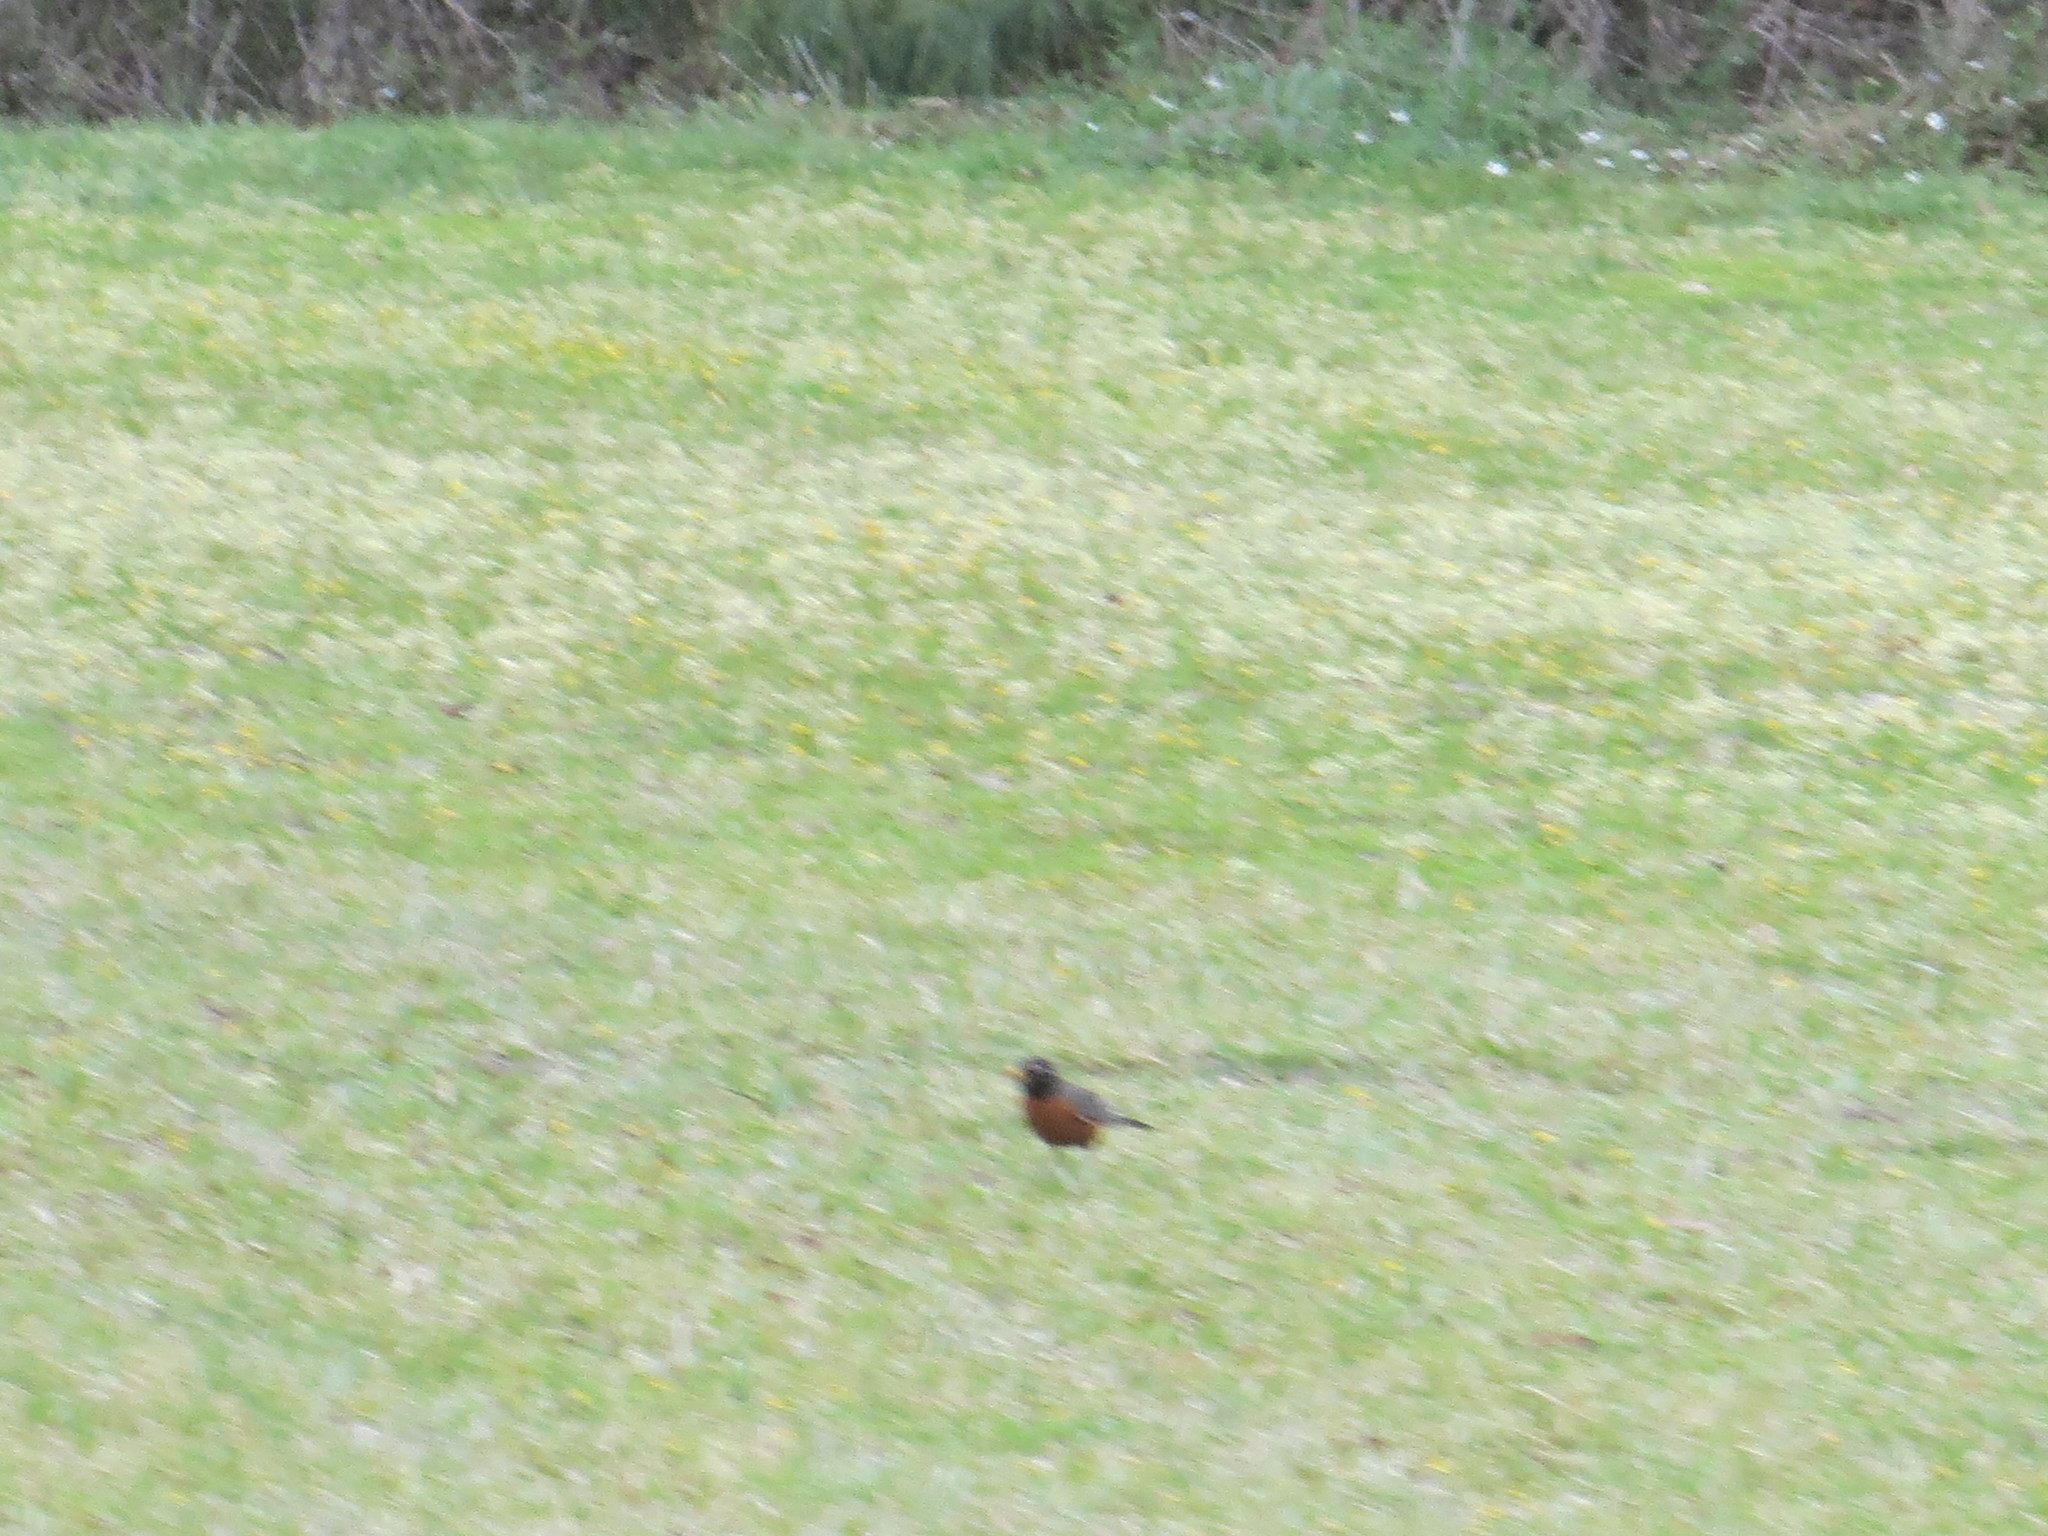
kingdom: Animalia
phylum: Chordata
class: Aves
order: Passeriformes
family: Turdidae
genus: Turdus
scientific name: Turdus migratorius
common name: American robin
